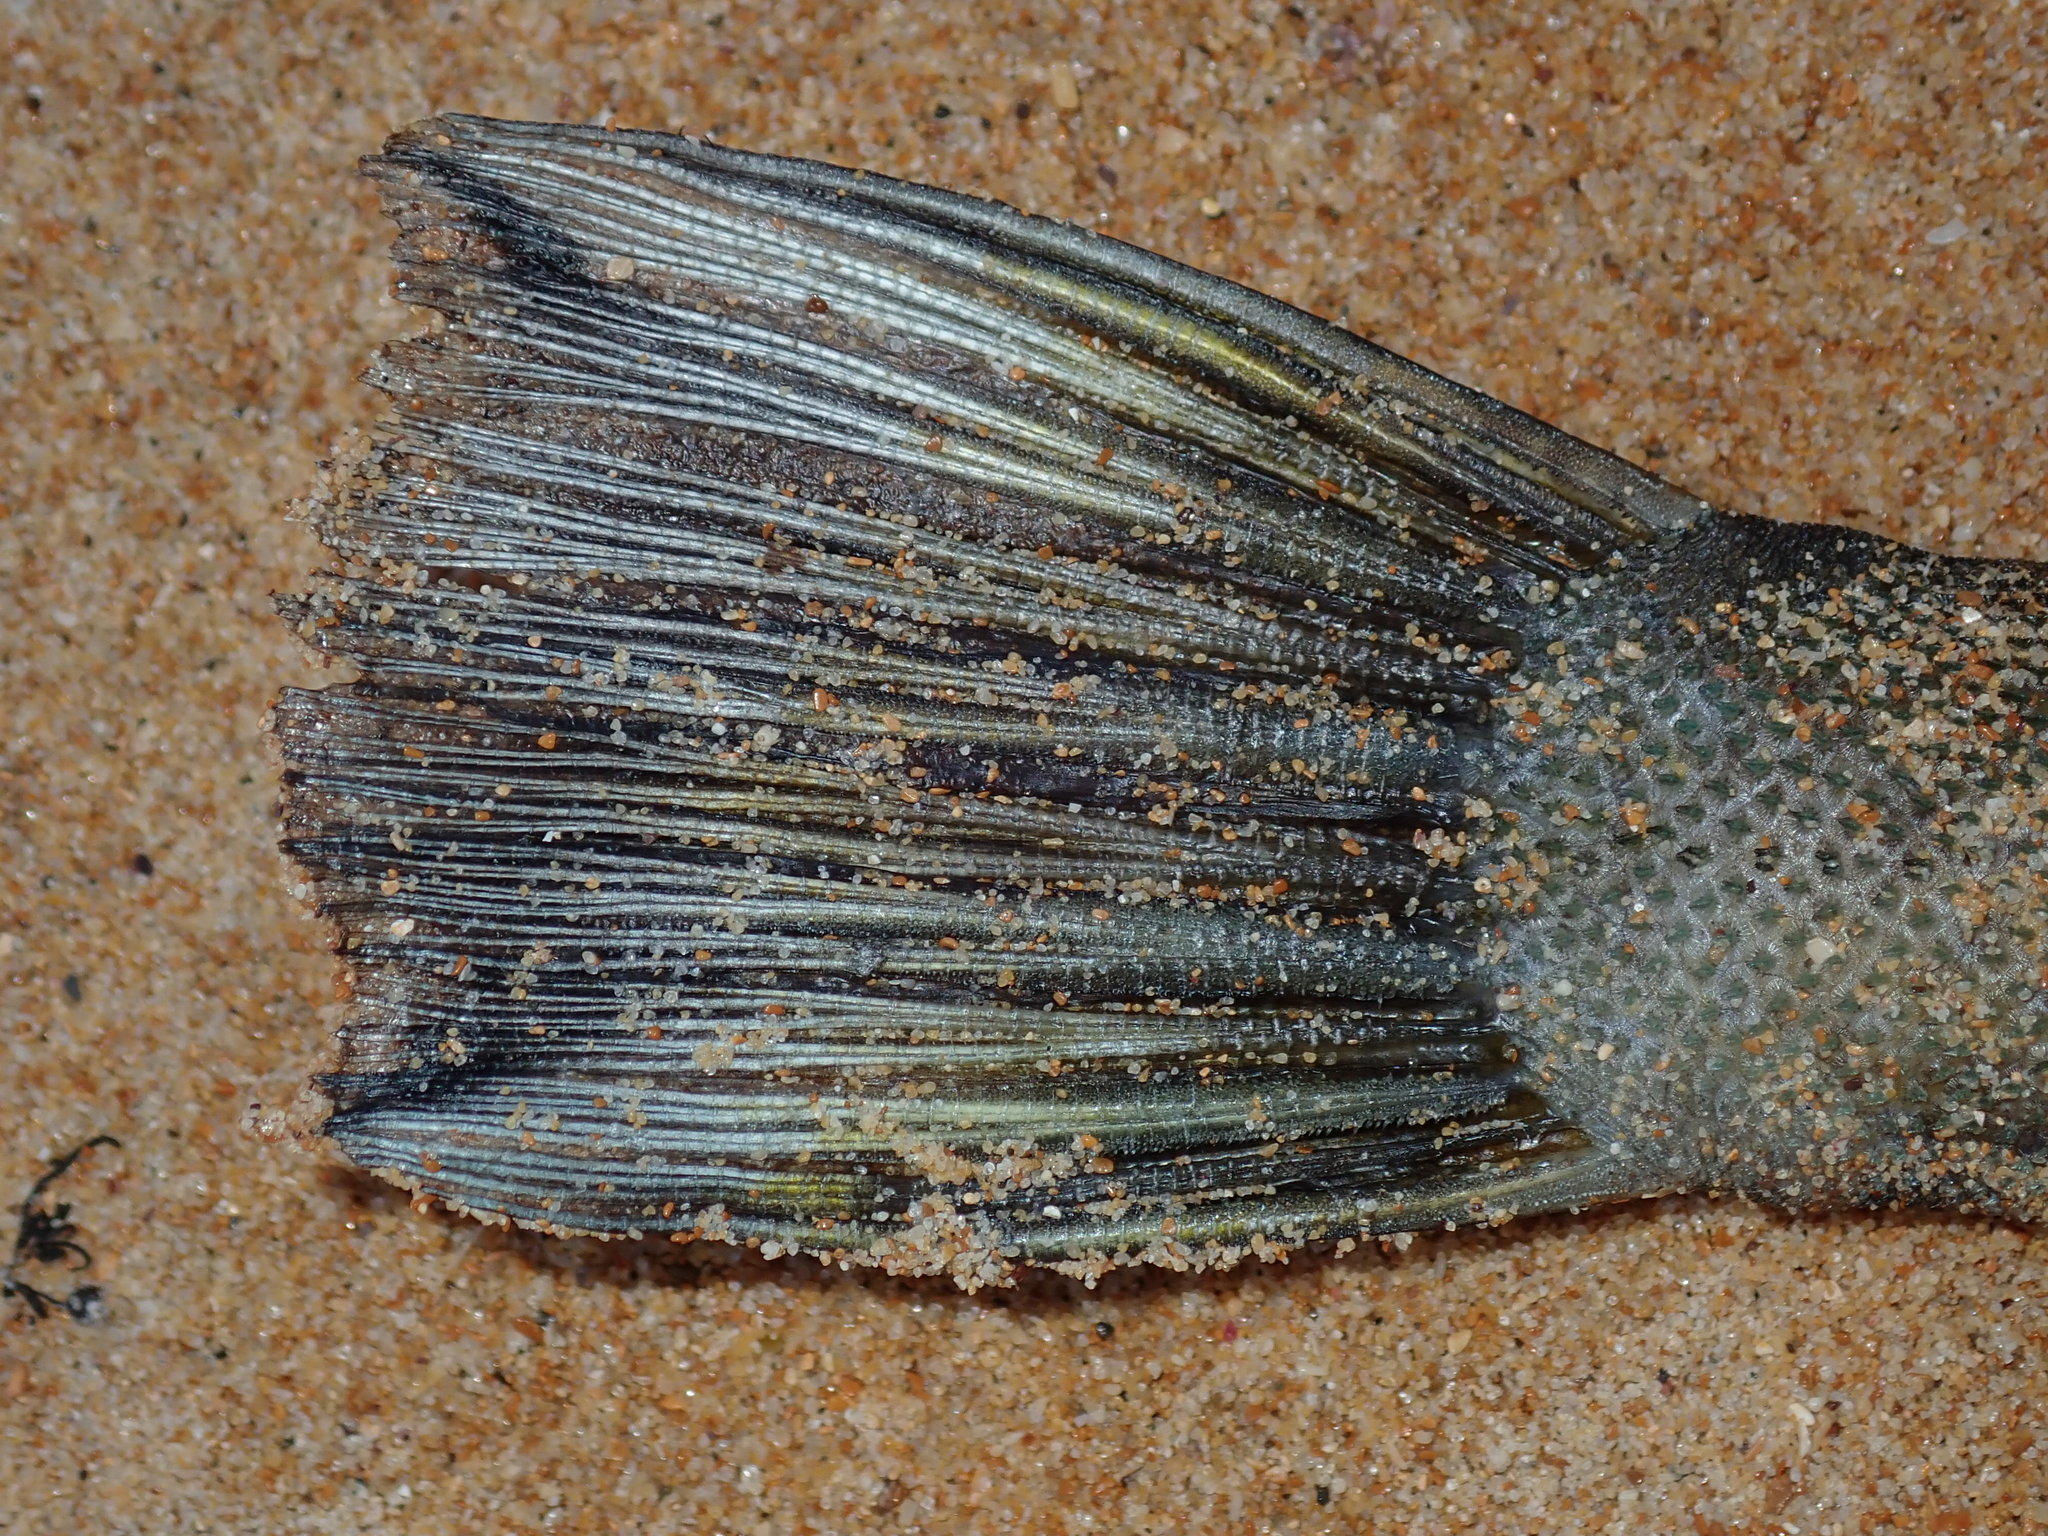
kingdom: Animalia
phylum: Chordata
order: Tetraodontiformes
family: Monacanthidae
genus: Scobinichthys
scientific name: Scobinichthys granulatus
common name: Rough leatherjacket
